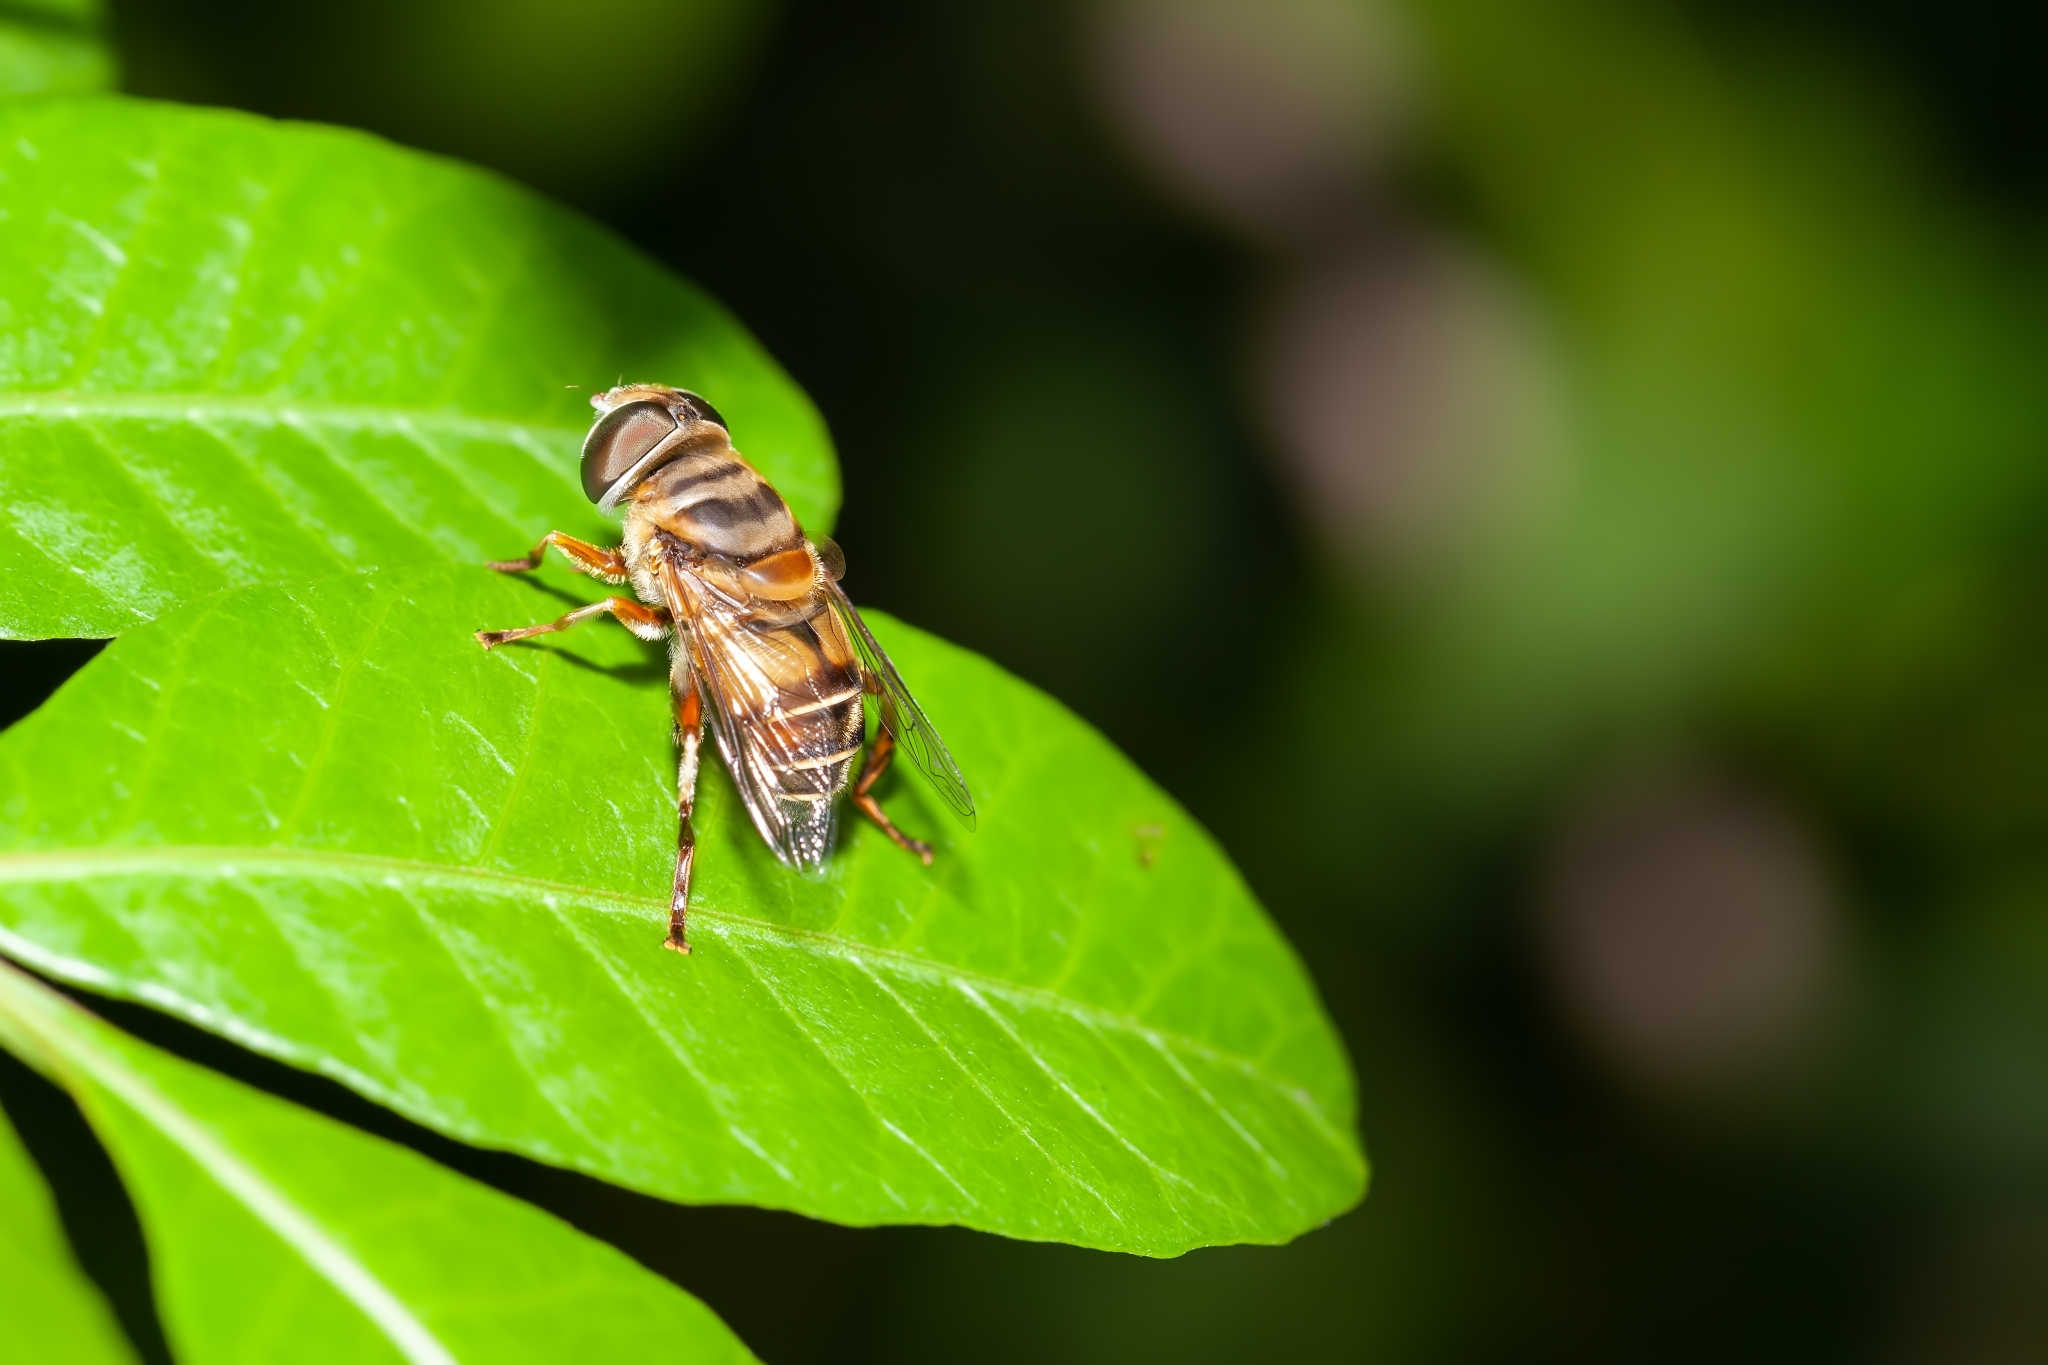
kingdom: Animalia
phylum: Arthropoda
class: Insecta
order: Diptera
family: Syrphidae
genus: Palpada
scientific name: Palpada vinetorum
